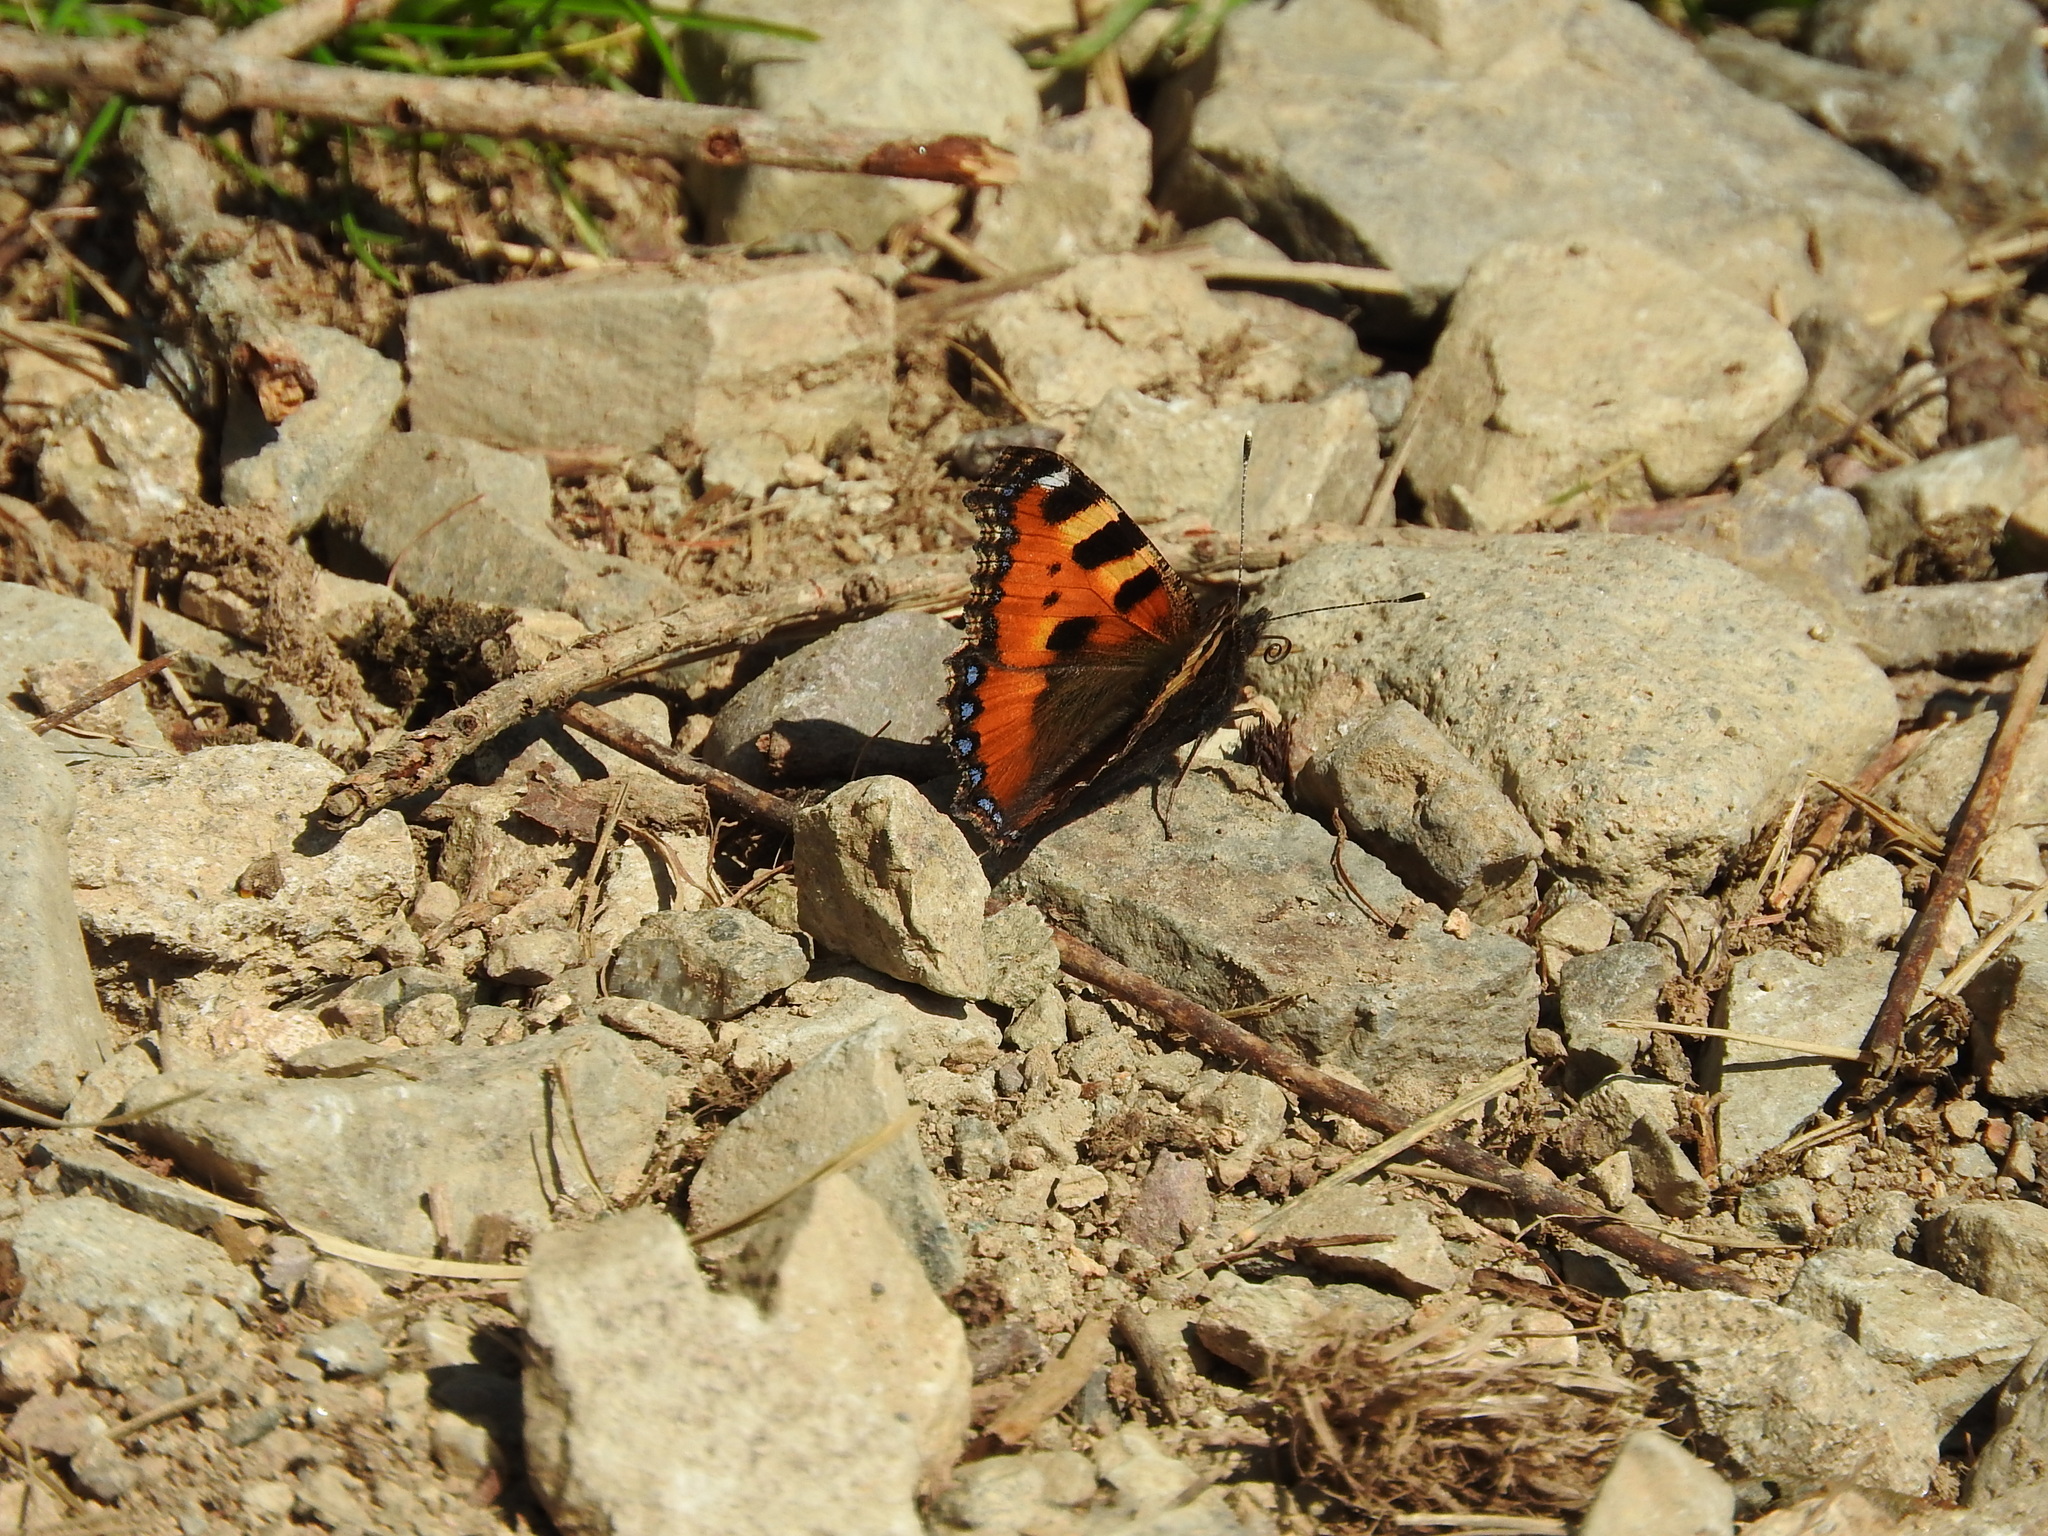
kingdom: Animalia
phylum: Arthropoda
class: Insecta
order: Lepidoptera
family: Nymphalidae
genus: Aglais
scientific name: Aglais urticae
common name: Small tortoiseshell
